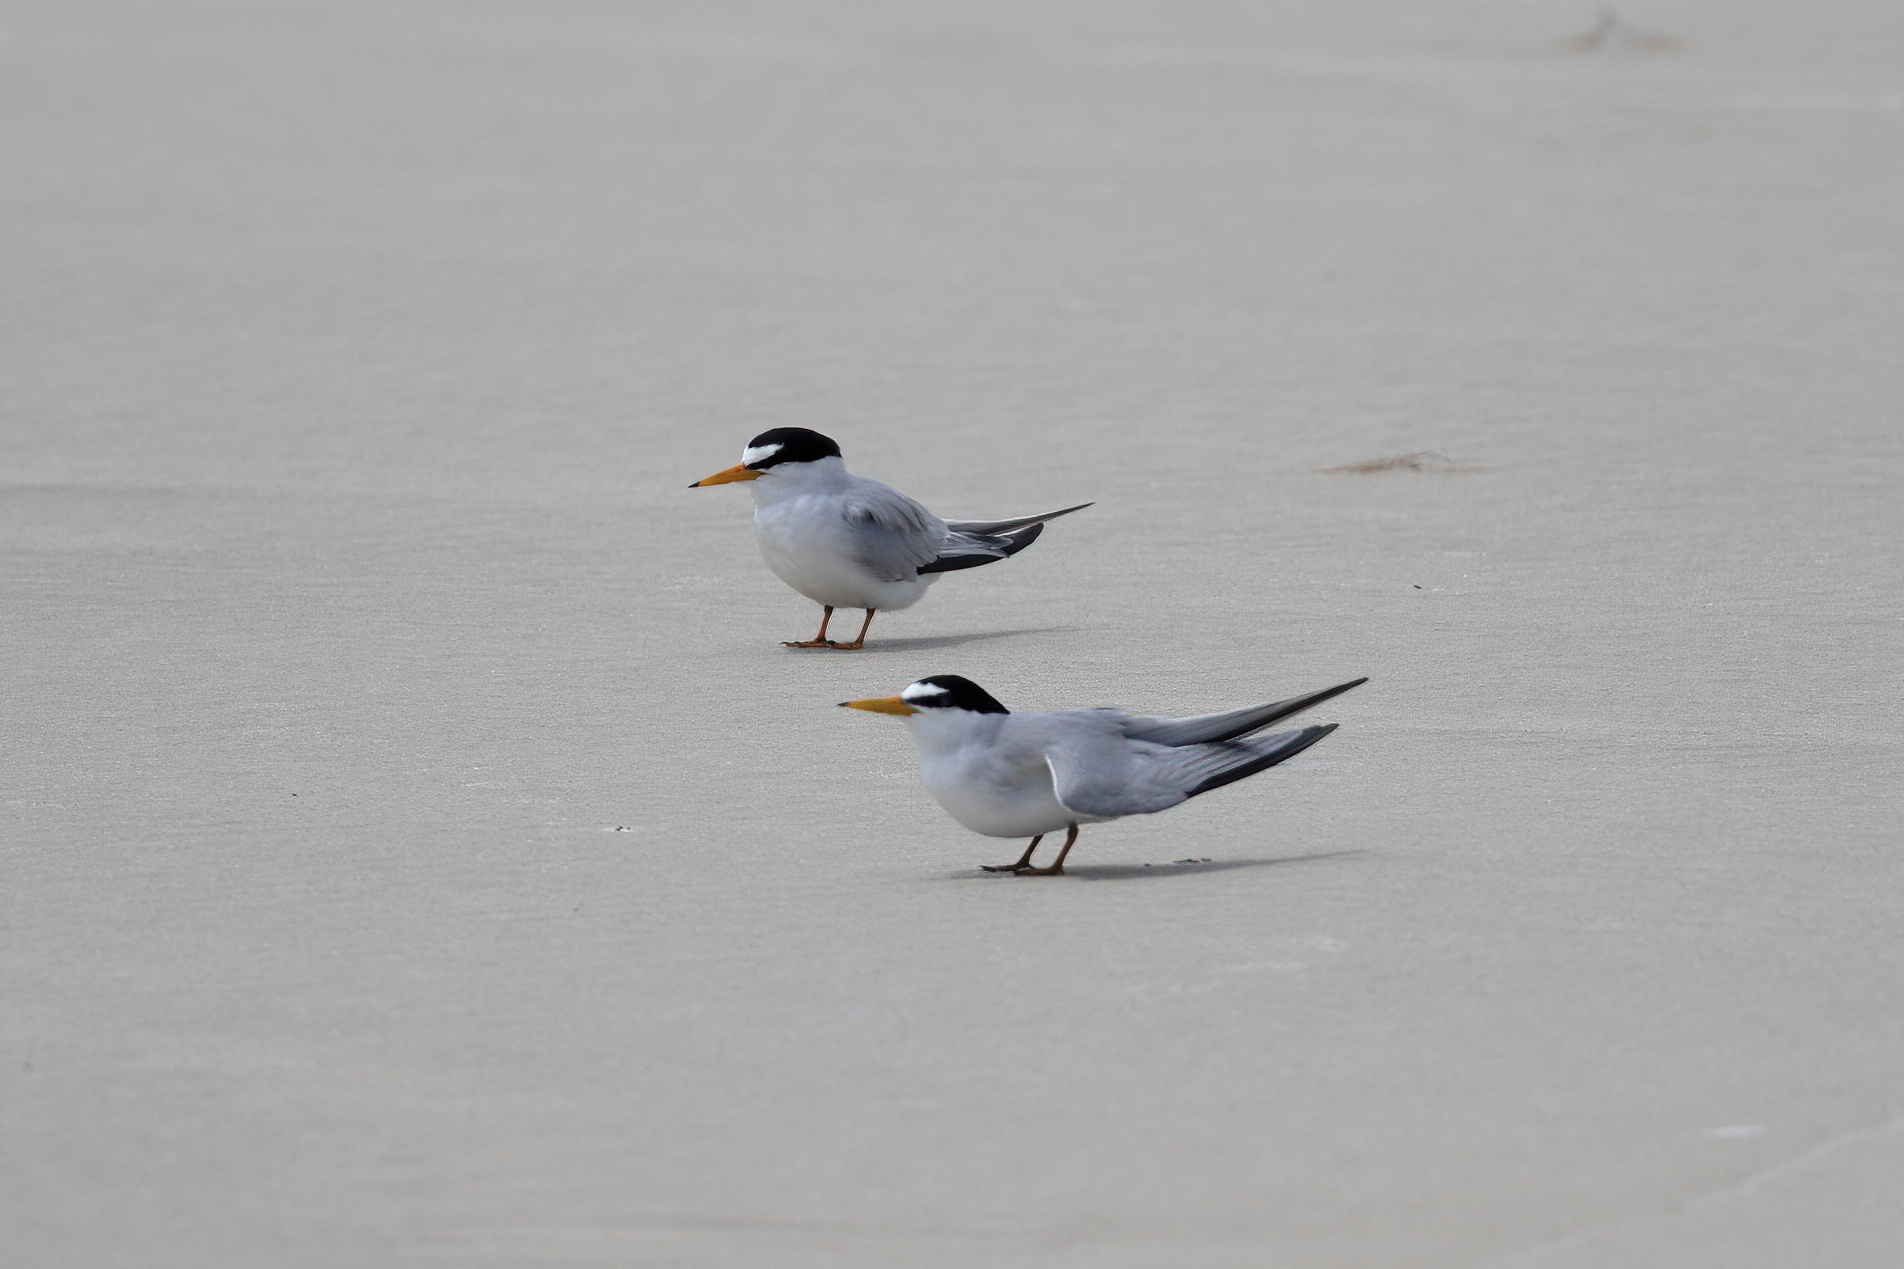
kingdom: Animalia
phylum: Chordata
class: Aves
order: Charadriiformes
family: Laridae
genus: Sternula
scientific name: Sternula antillarum
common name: Least tern
